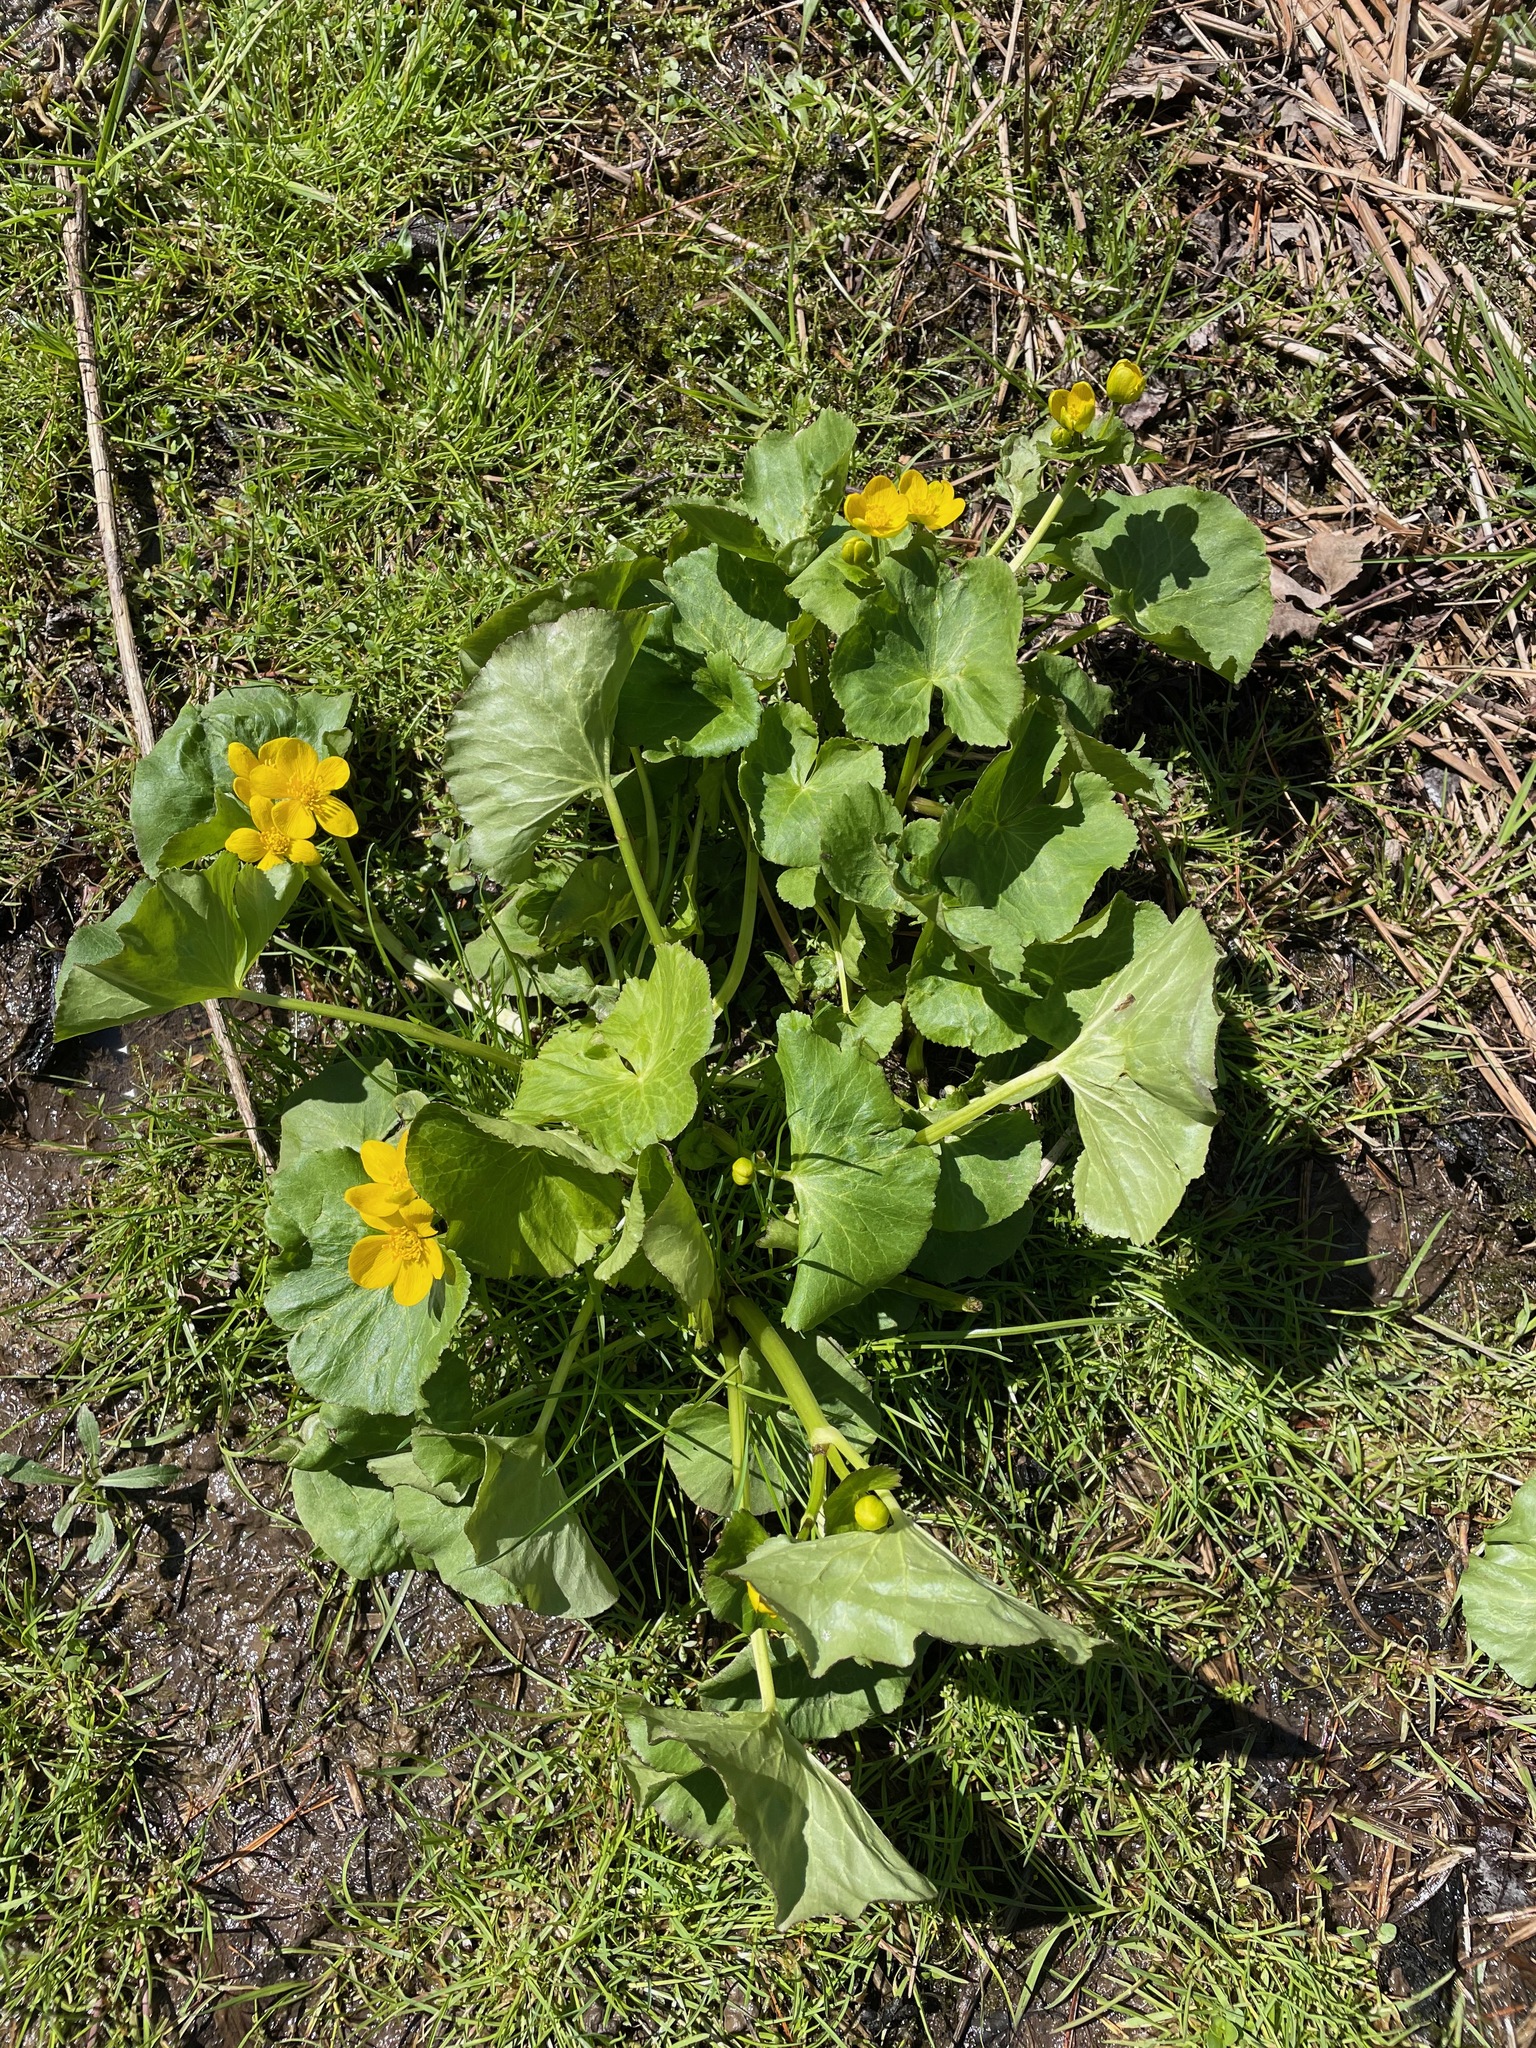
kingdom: Plantae
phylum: Tracheophyta
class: Magnoliopsida
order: Ranunculales
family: Ranunculaceae
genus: Caltha
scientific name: Caltha palustris
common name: Marsh marigold
